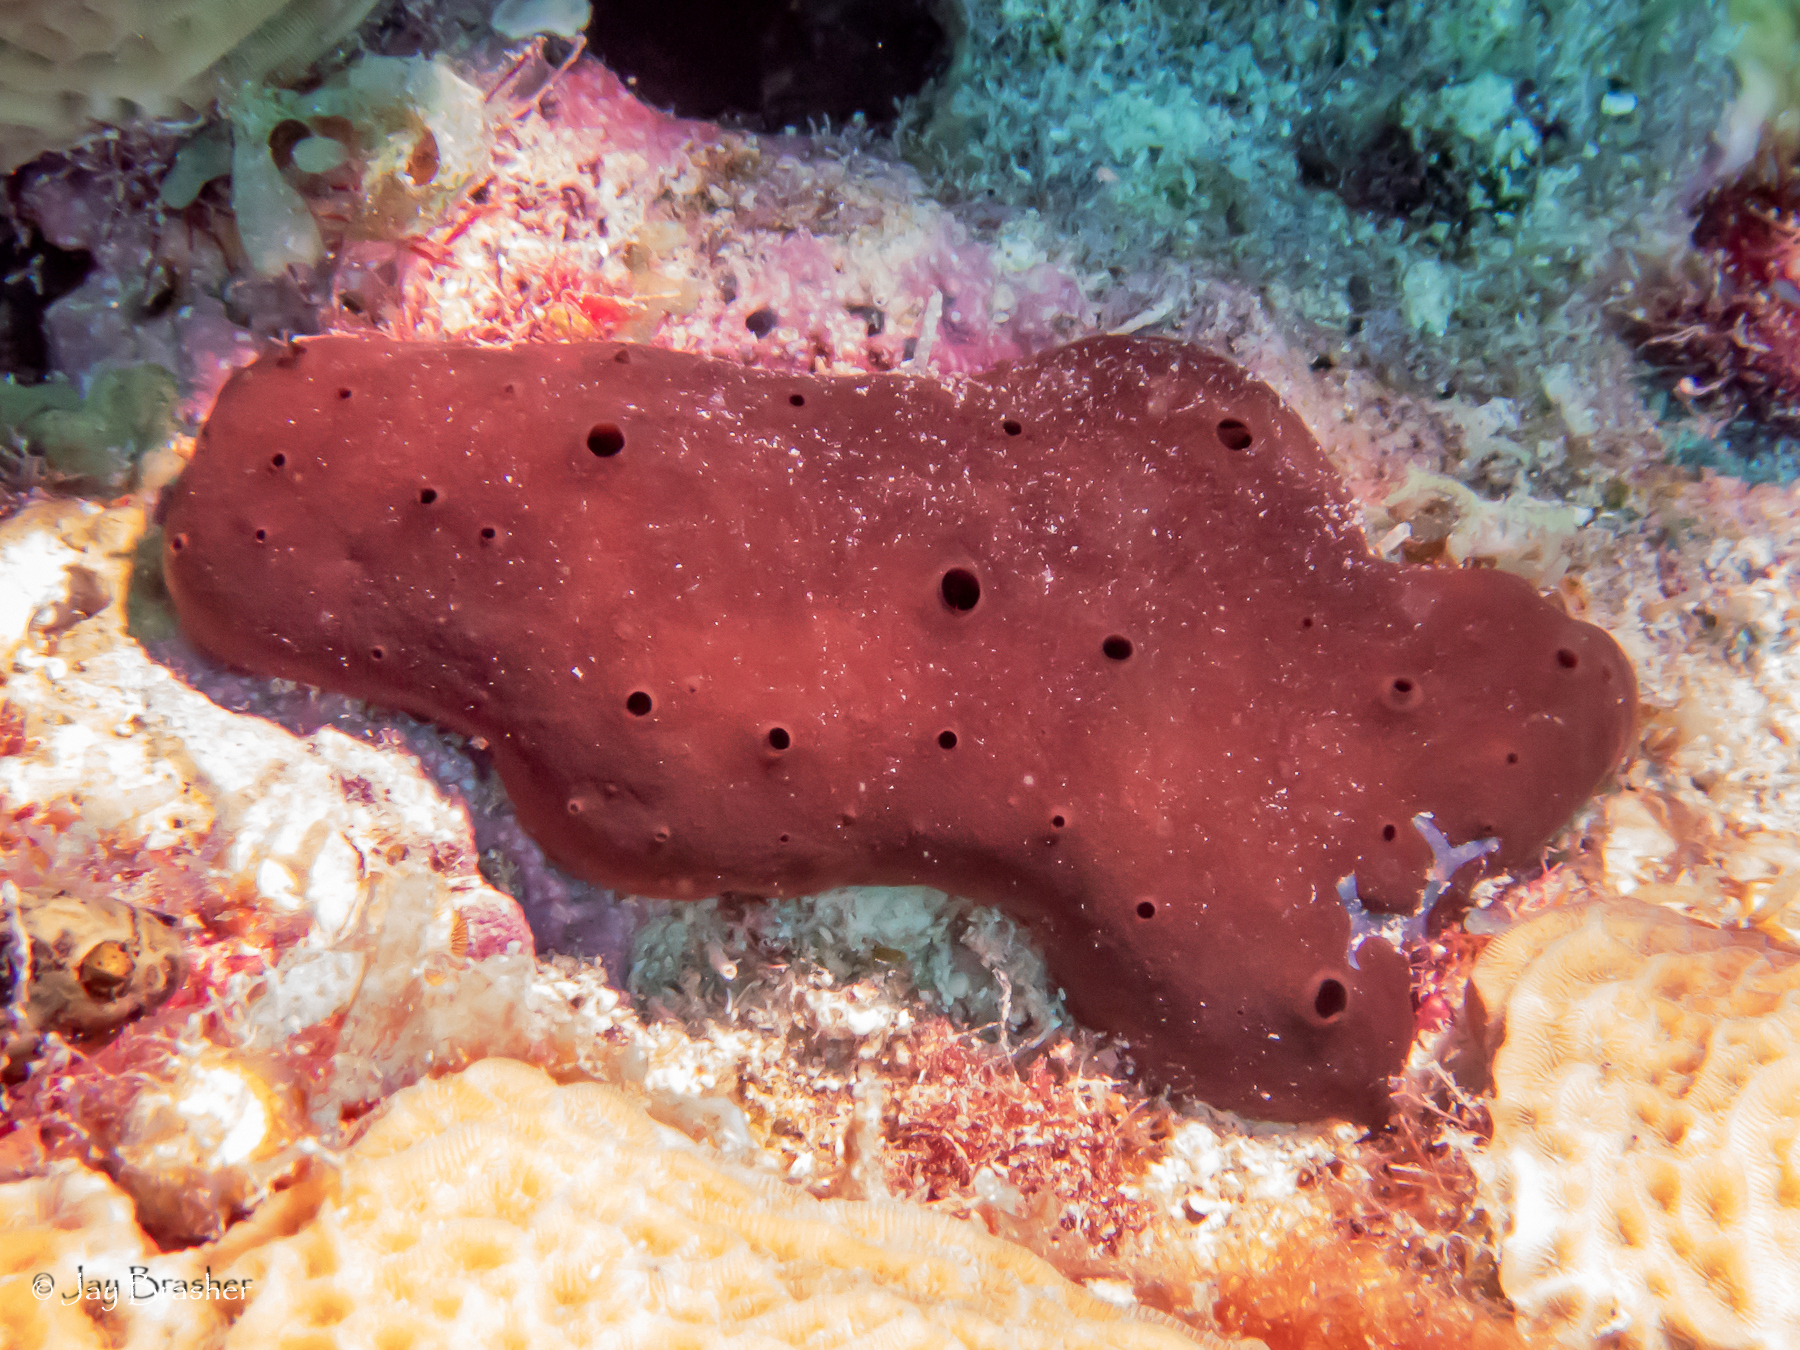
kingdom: Animalia
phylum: Porifera
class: Homoscleromorpha
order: Homosclerophorida
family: Plakinidae
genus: Plakortis
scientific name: Plakortis angulospiculatus
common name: Viscous sponge
